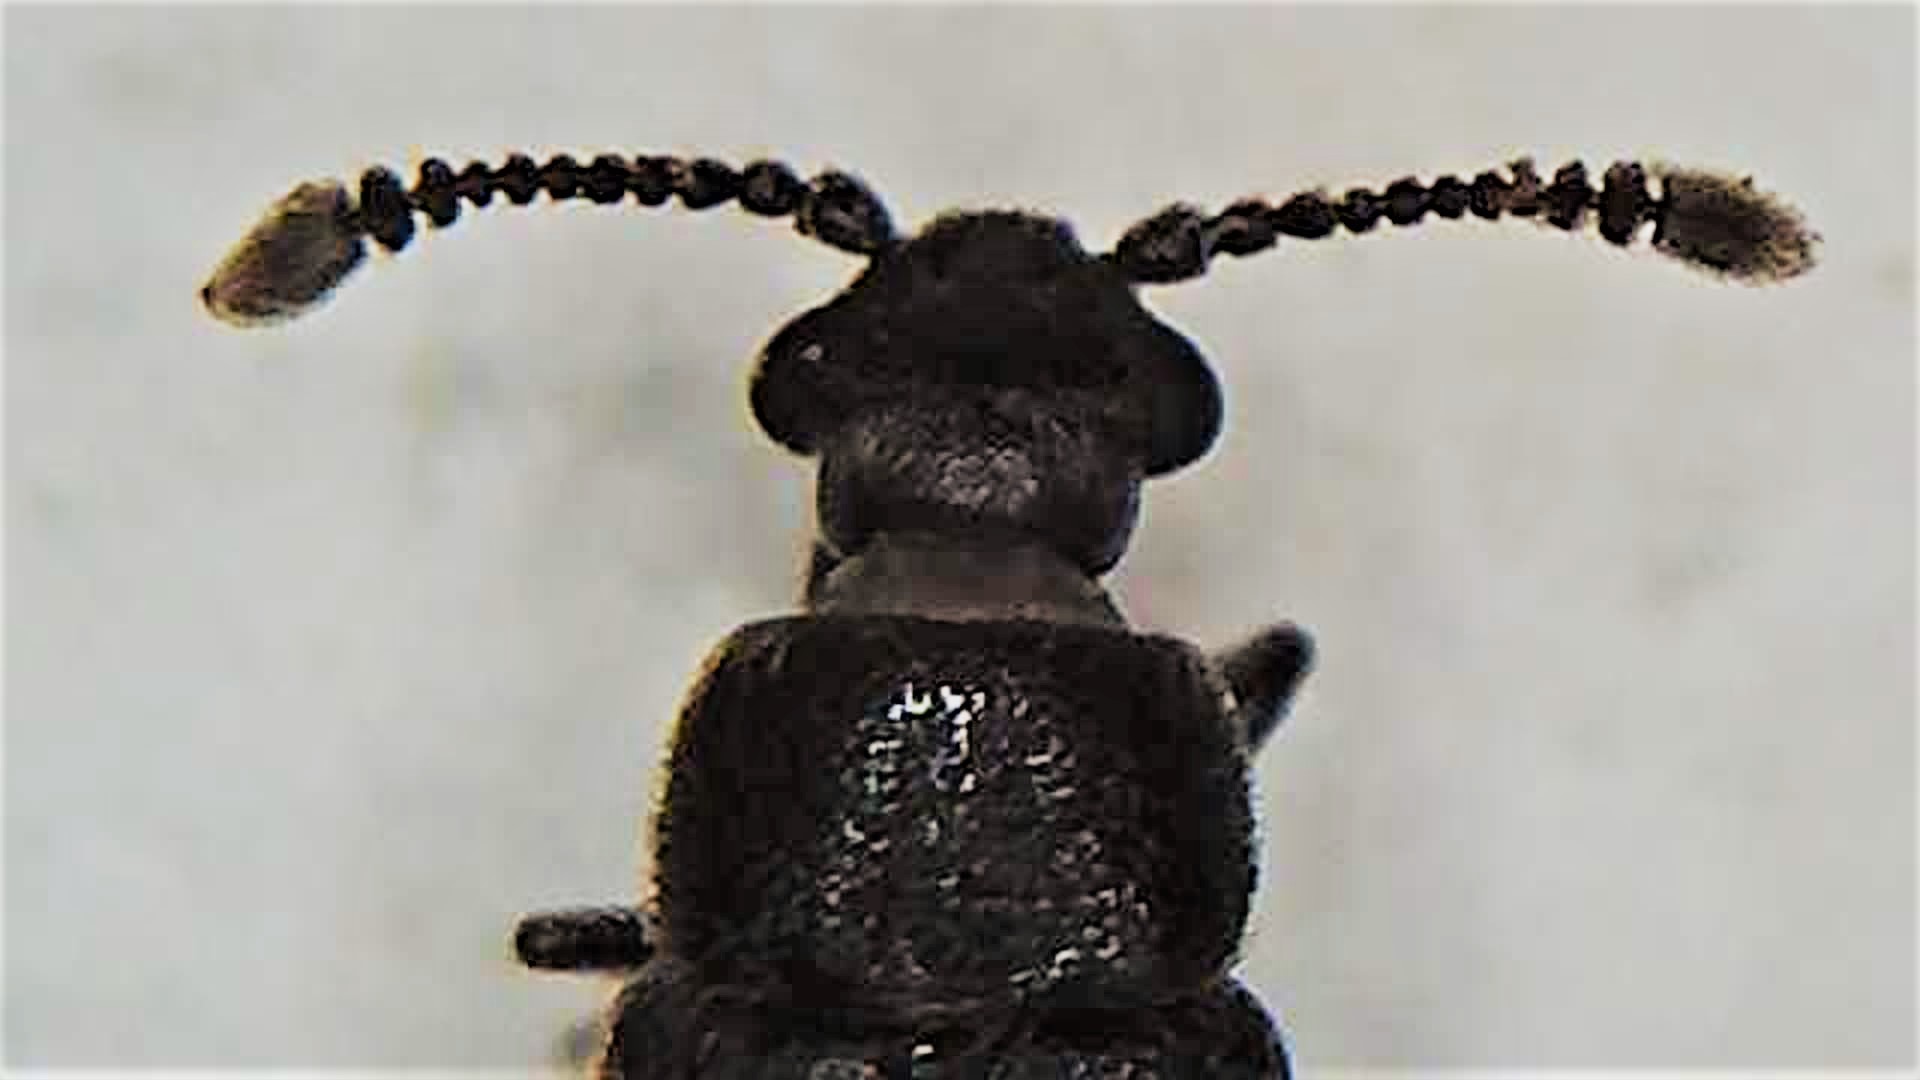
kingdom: Animalia
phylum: Arthropoda
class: Insecta
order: Coleoptera
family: Cavognathidae
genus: Taphropiestes
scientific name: Taphropiestes watti
